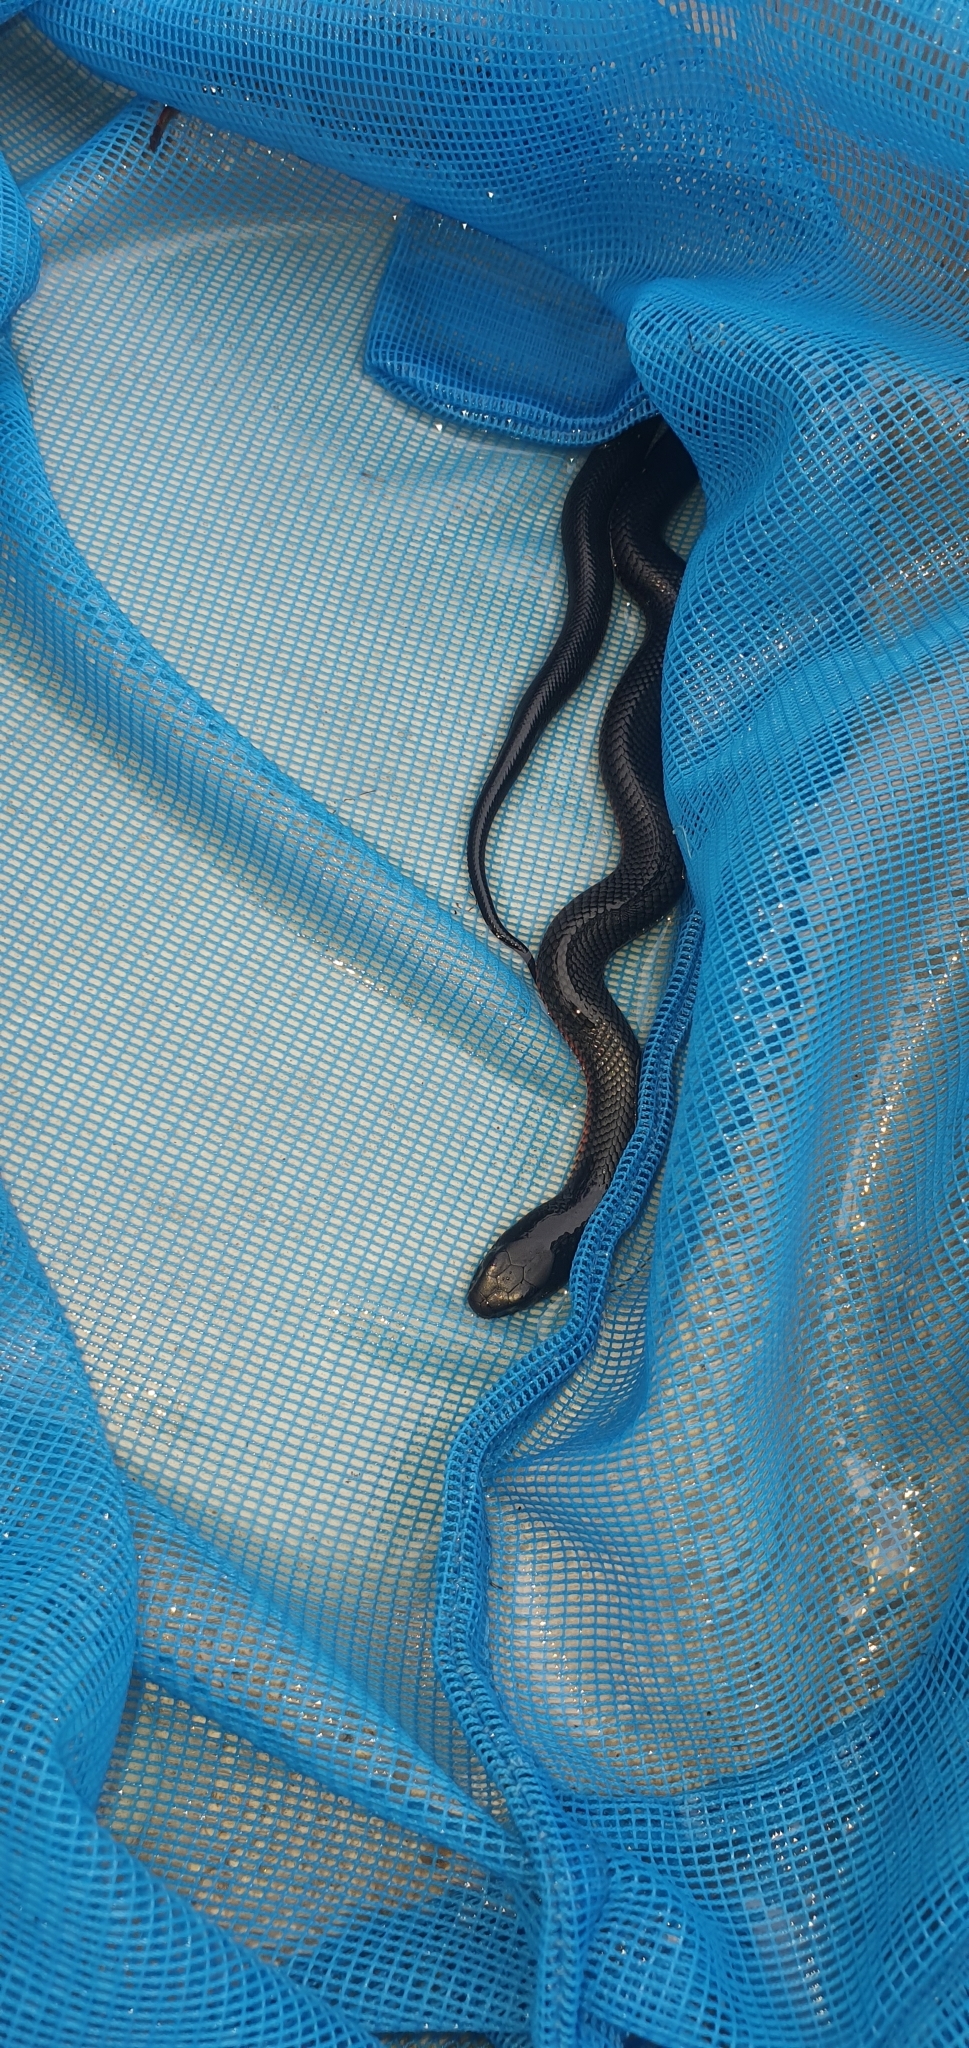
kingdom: Animalia
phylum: Chordata
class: Squamata
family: Elapidae
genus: Pseudechis
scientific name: Pseudechis porphyriacus
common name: Australian black snake
